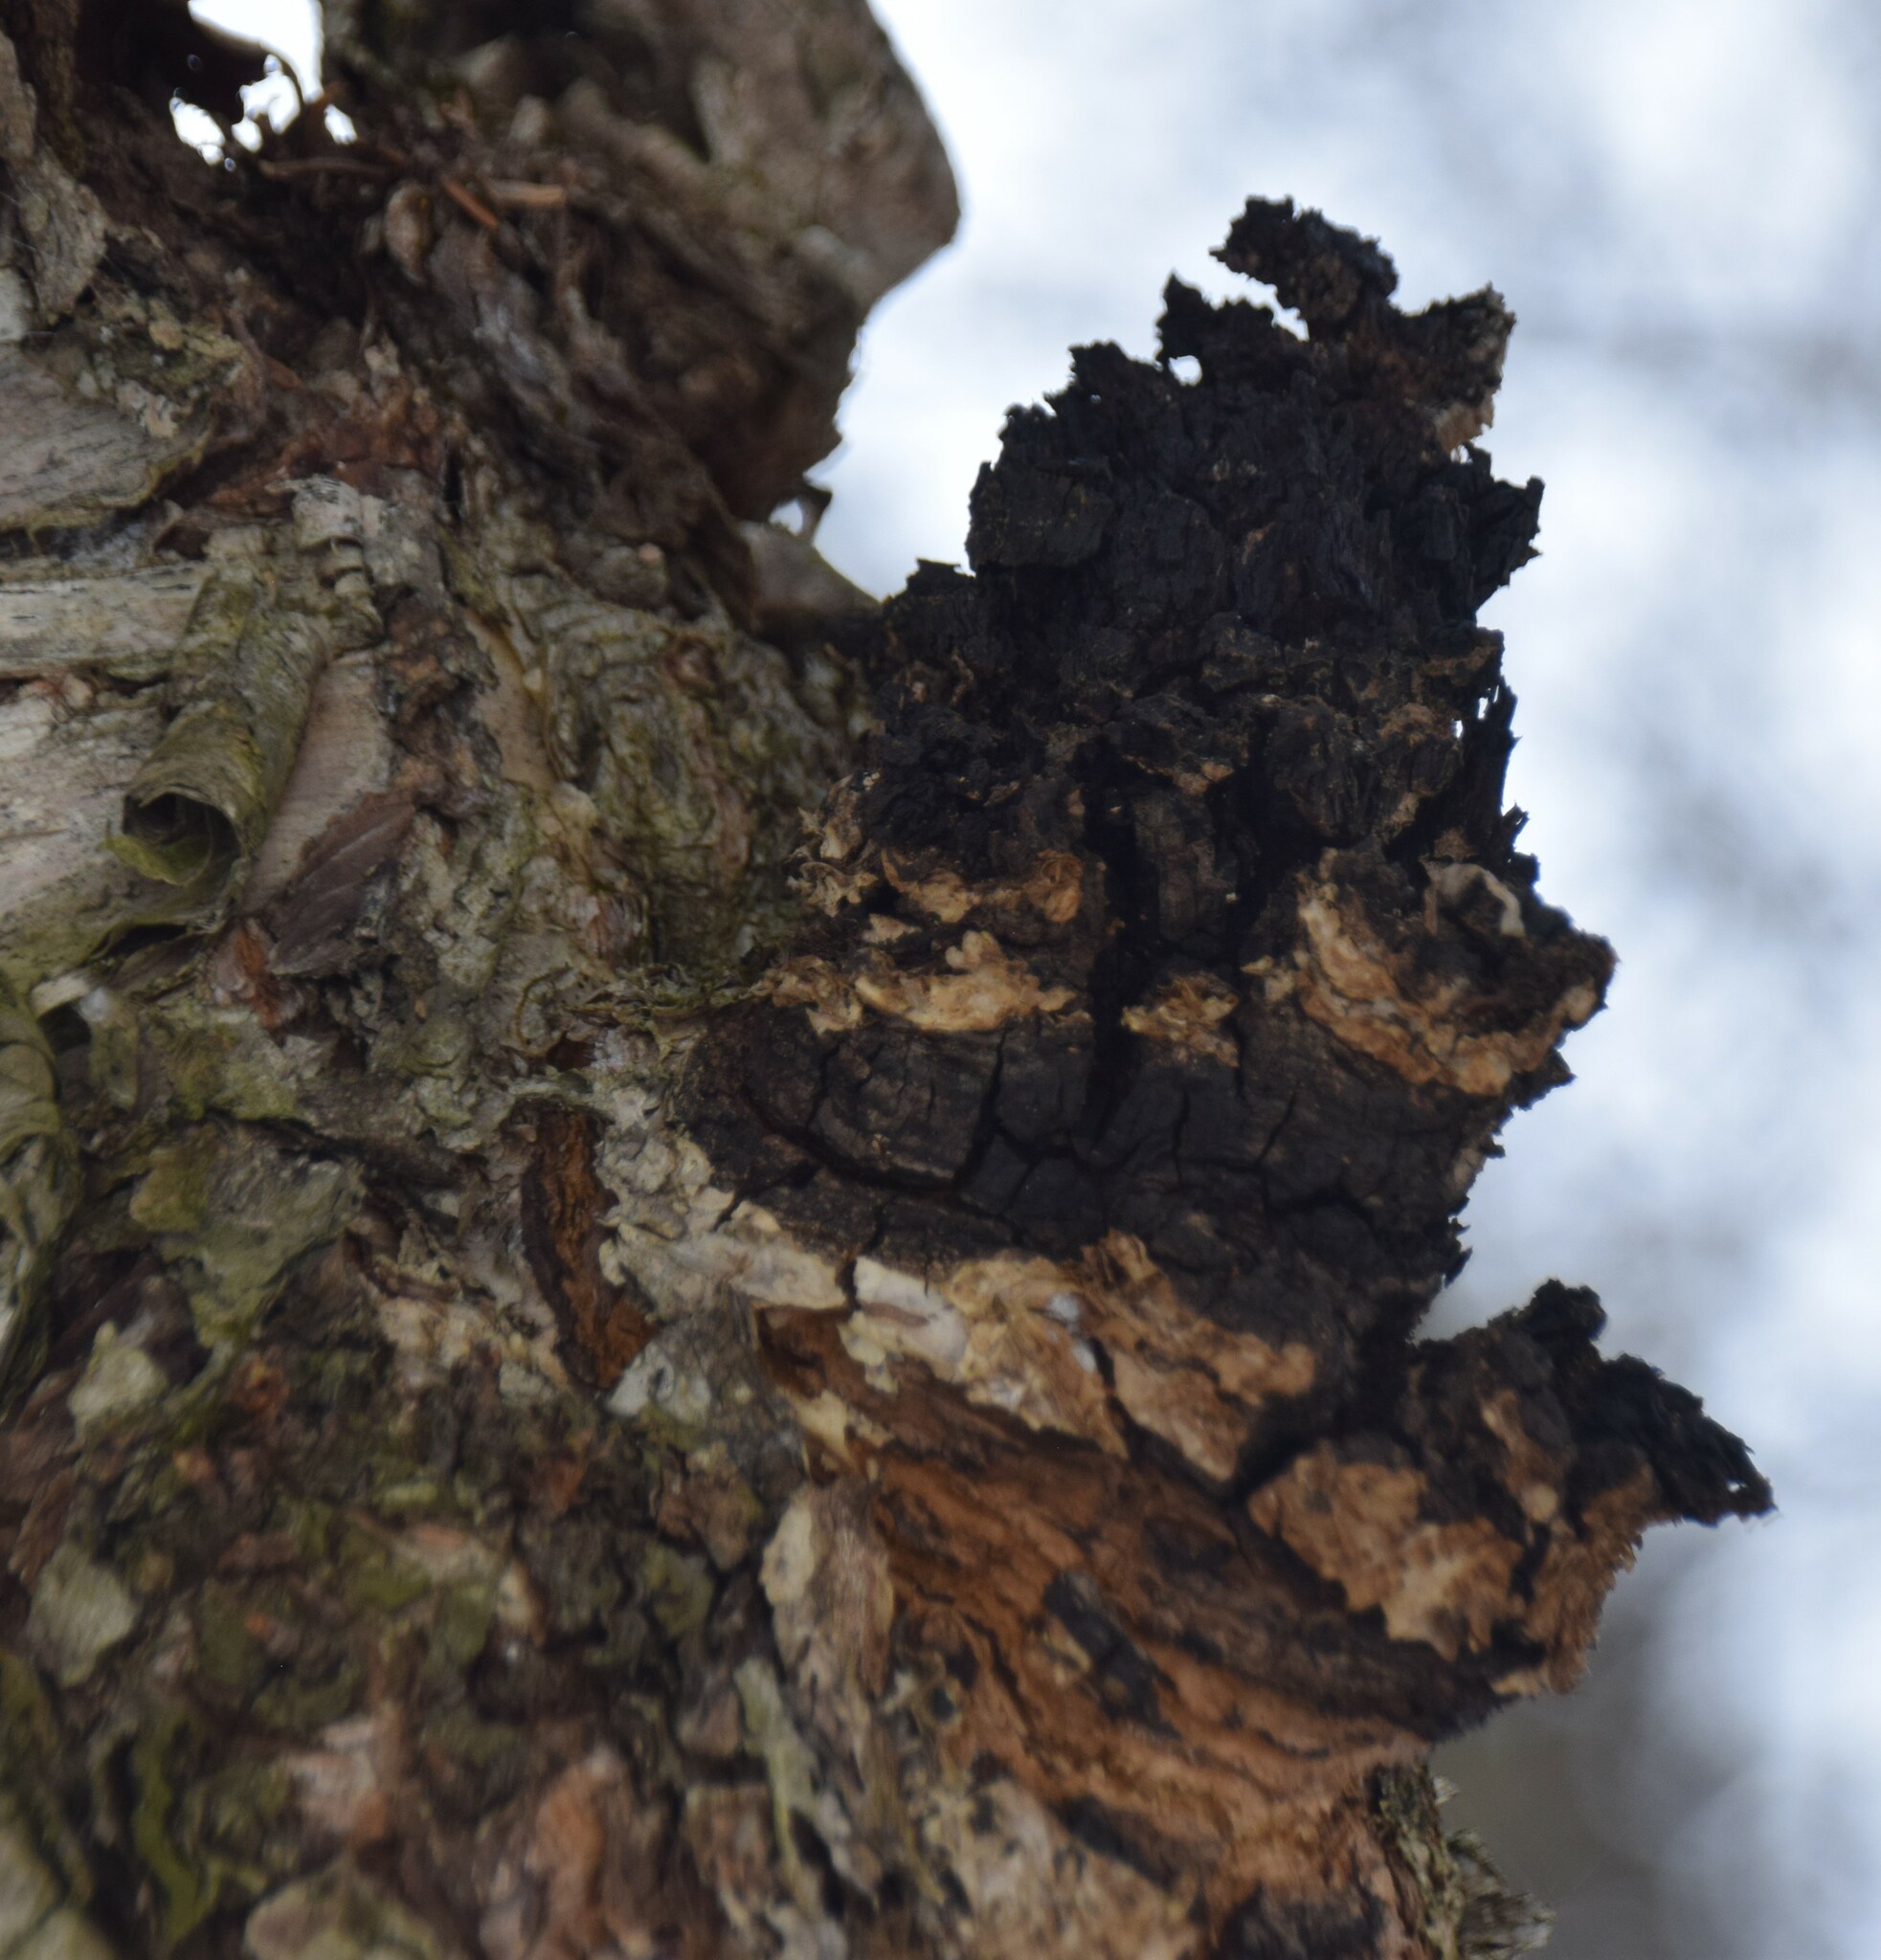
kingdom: Fungi
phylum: Basidiomycota
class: Agaricomycetes
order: Hymenochaetales
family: Hymenochaetaceae
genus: Inonotus
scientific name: Inonotus obliquus
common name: Chaga
